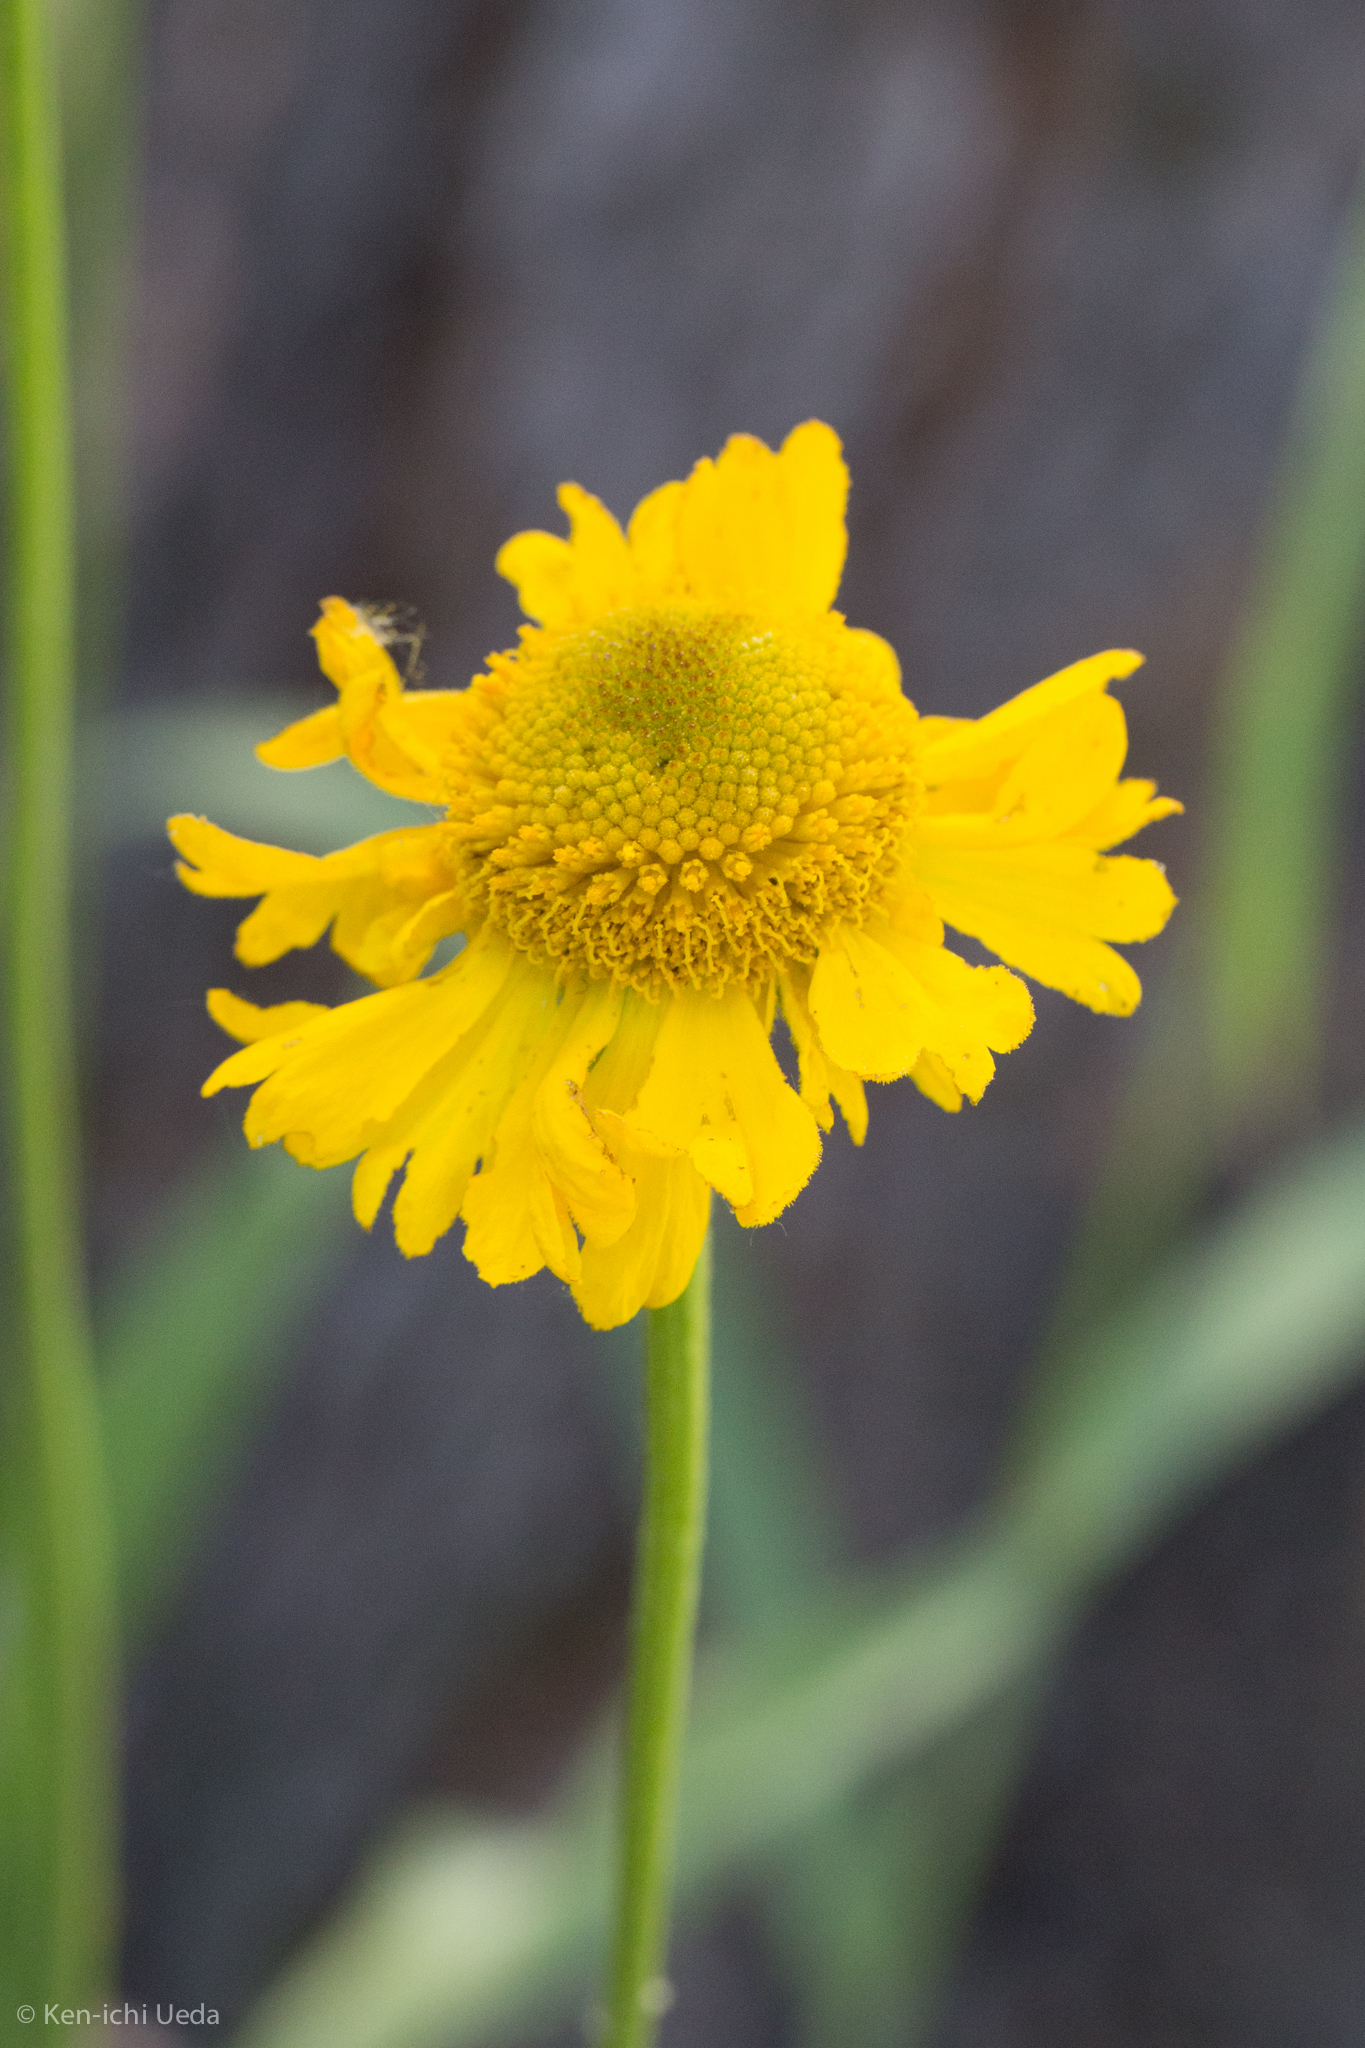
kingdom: Plantae
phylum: Tracheophyta
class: Magnoliopsida
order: Asterales
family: Asteraceae
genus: Helenium
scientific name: Helenium bigelovii
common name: Bigelow's sneezeweed
